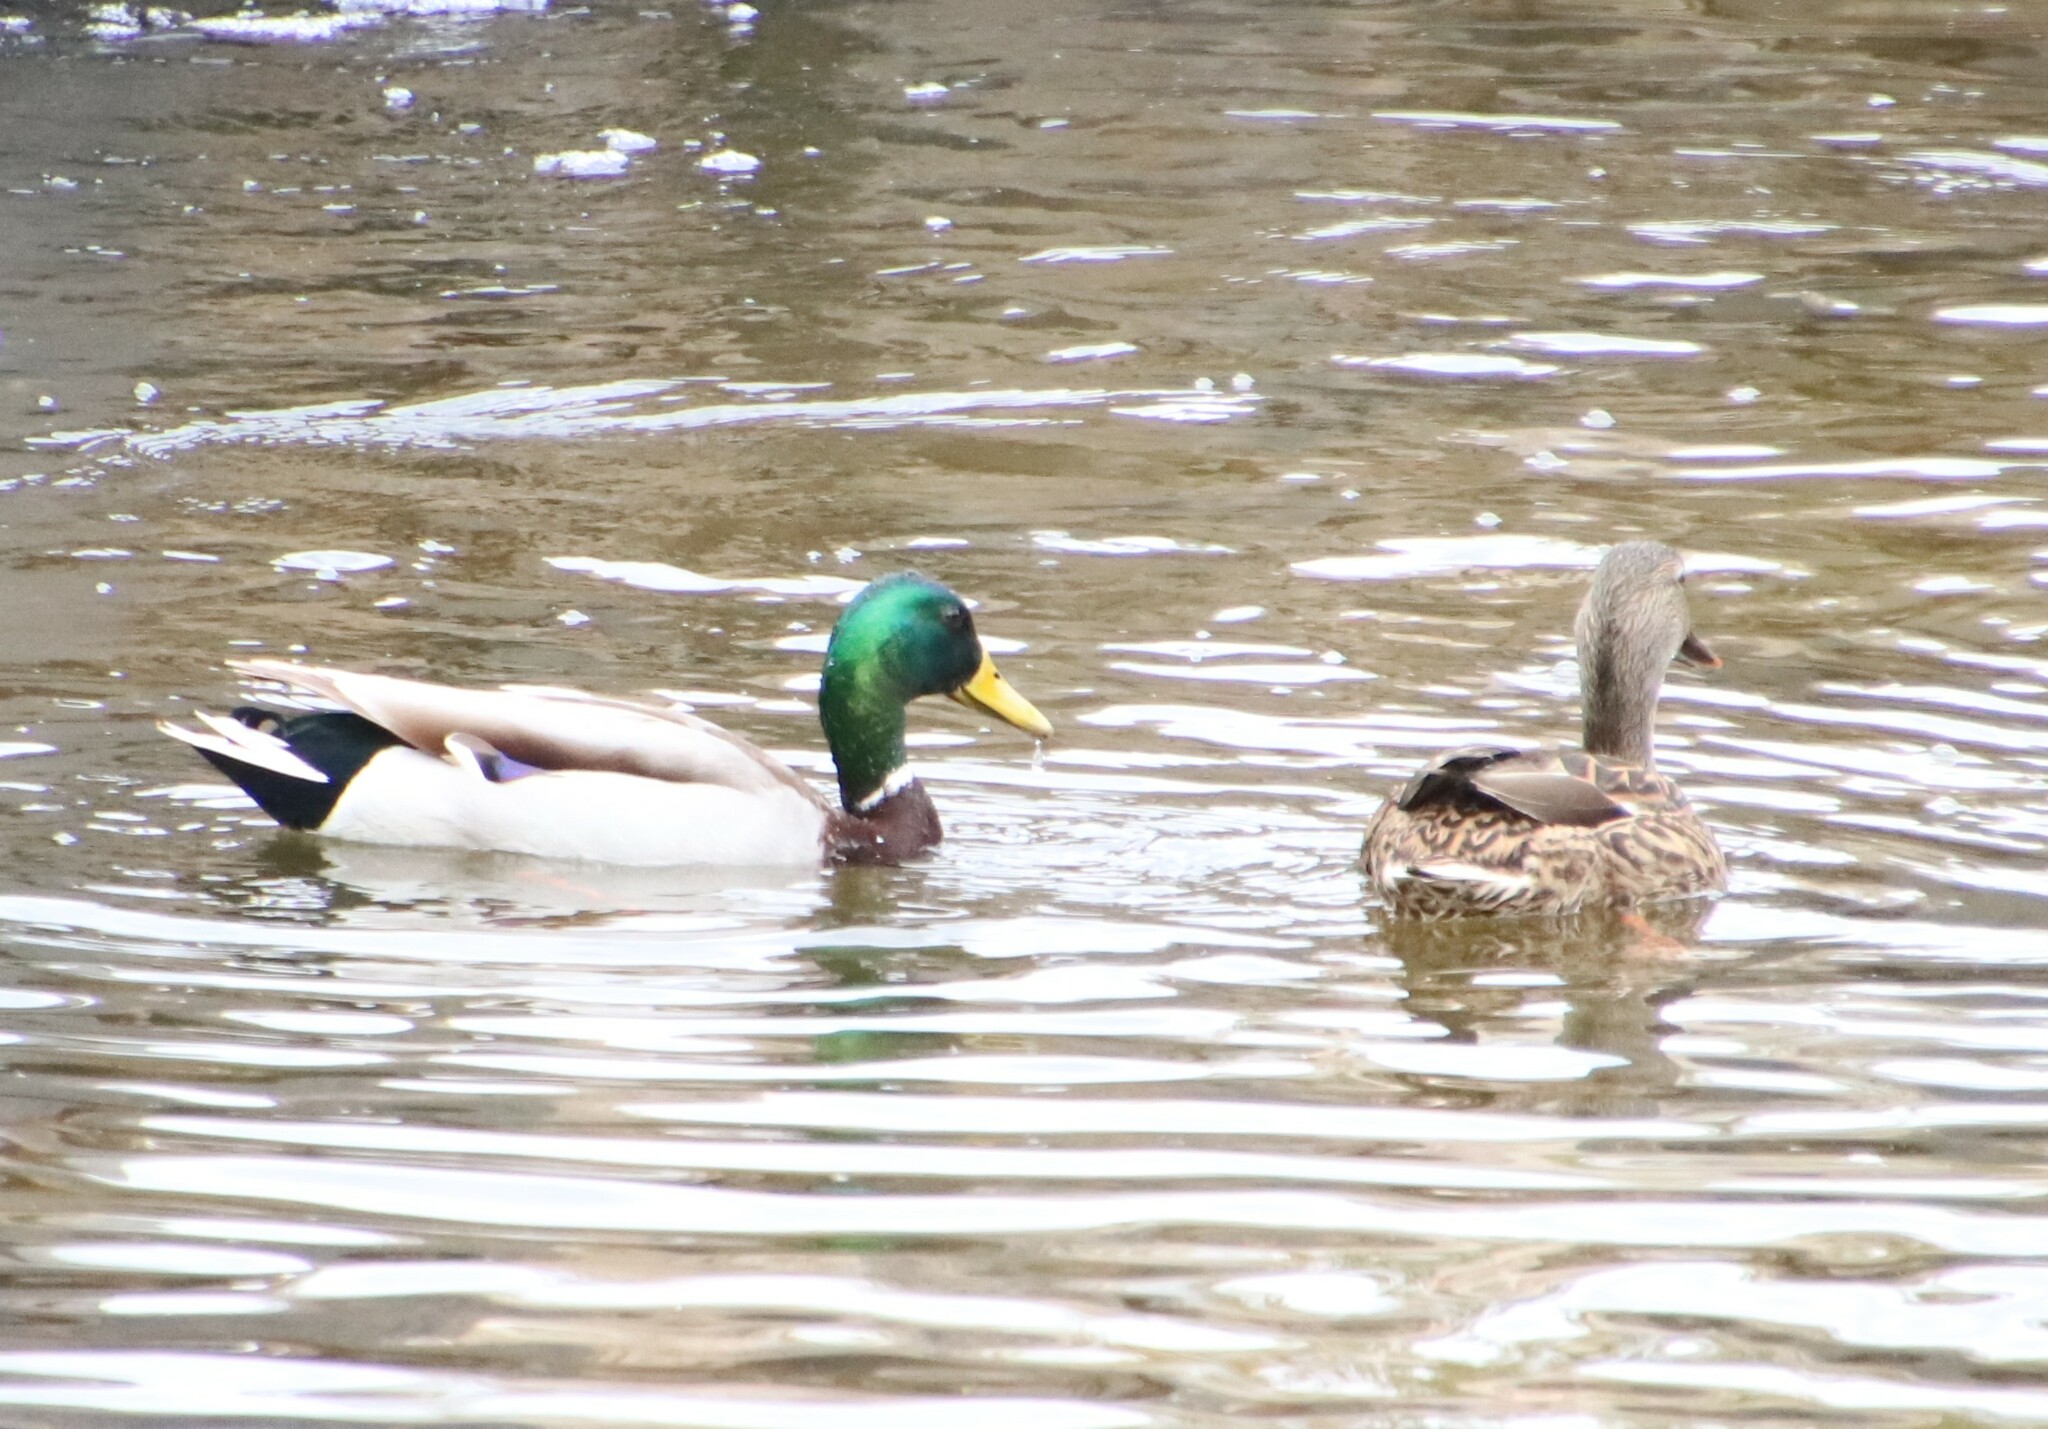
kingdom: Animalia
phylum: Chordata
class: Aves
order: Anseriformes
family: Anatidae
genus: Anas
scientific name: Anas platyrhynchos
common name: Mallard
